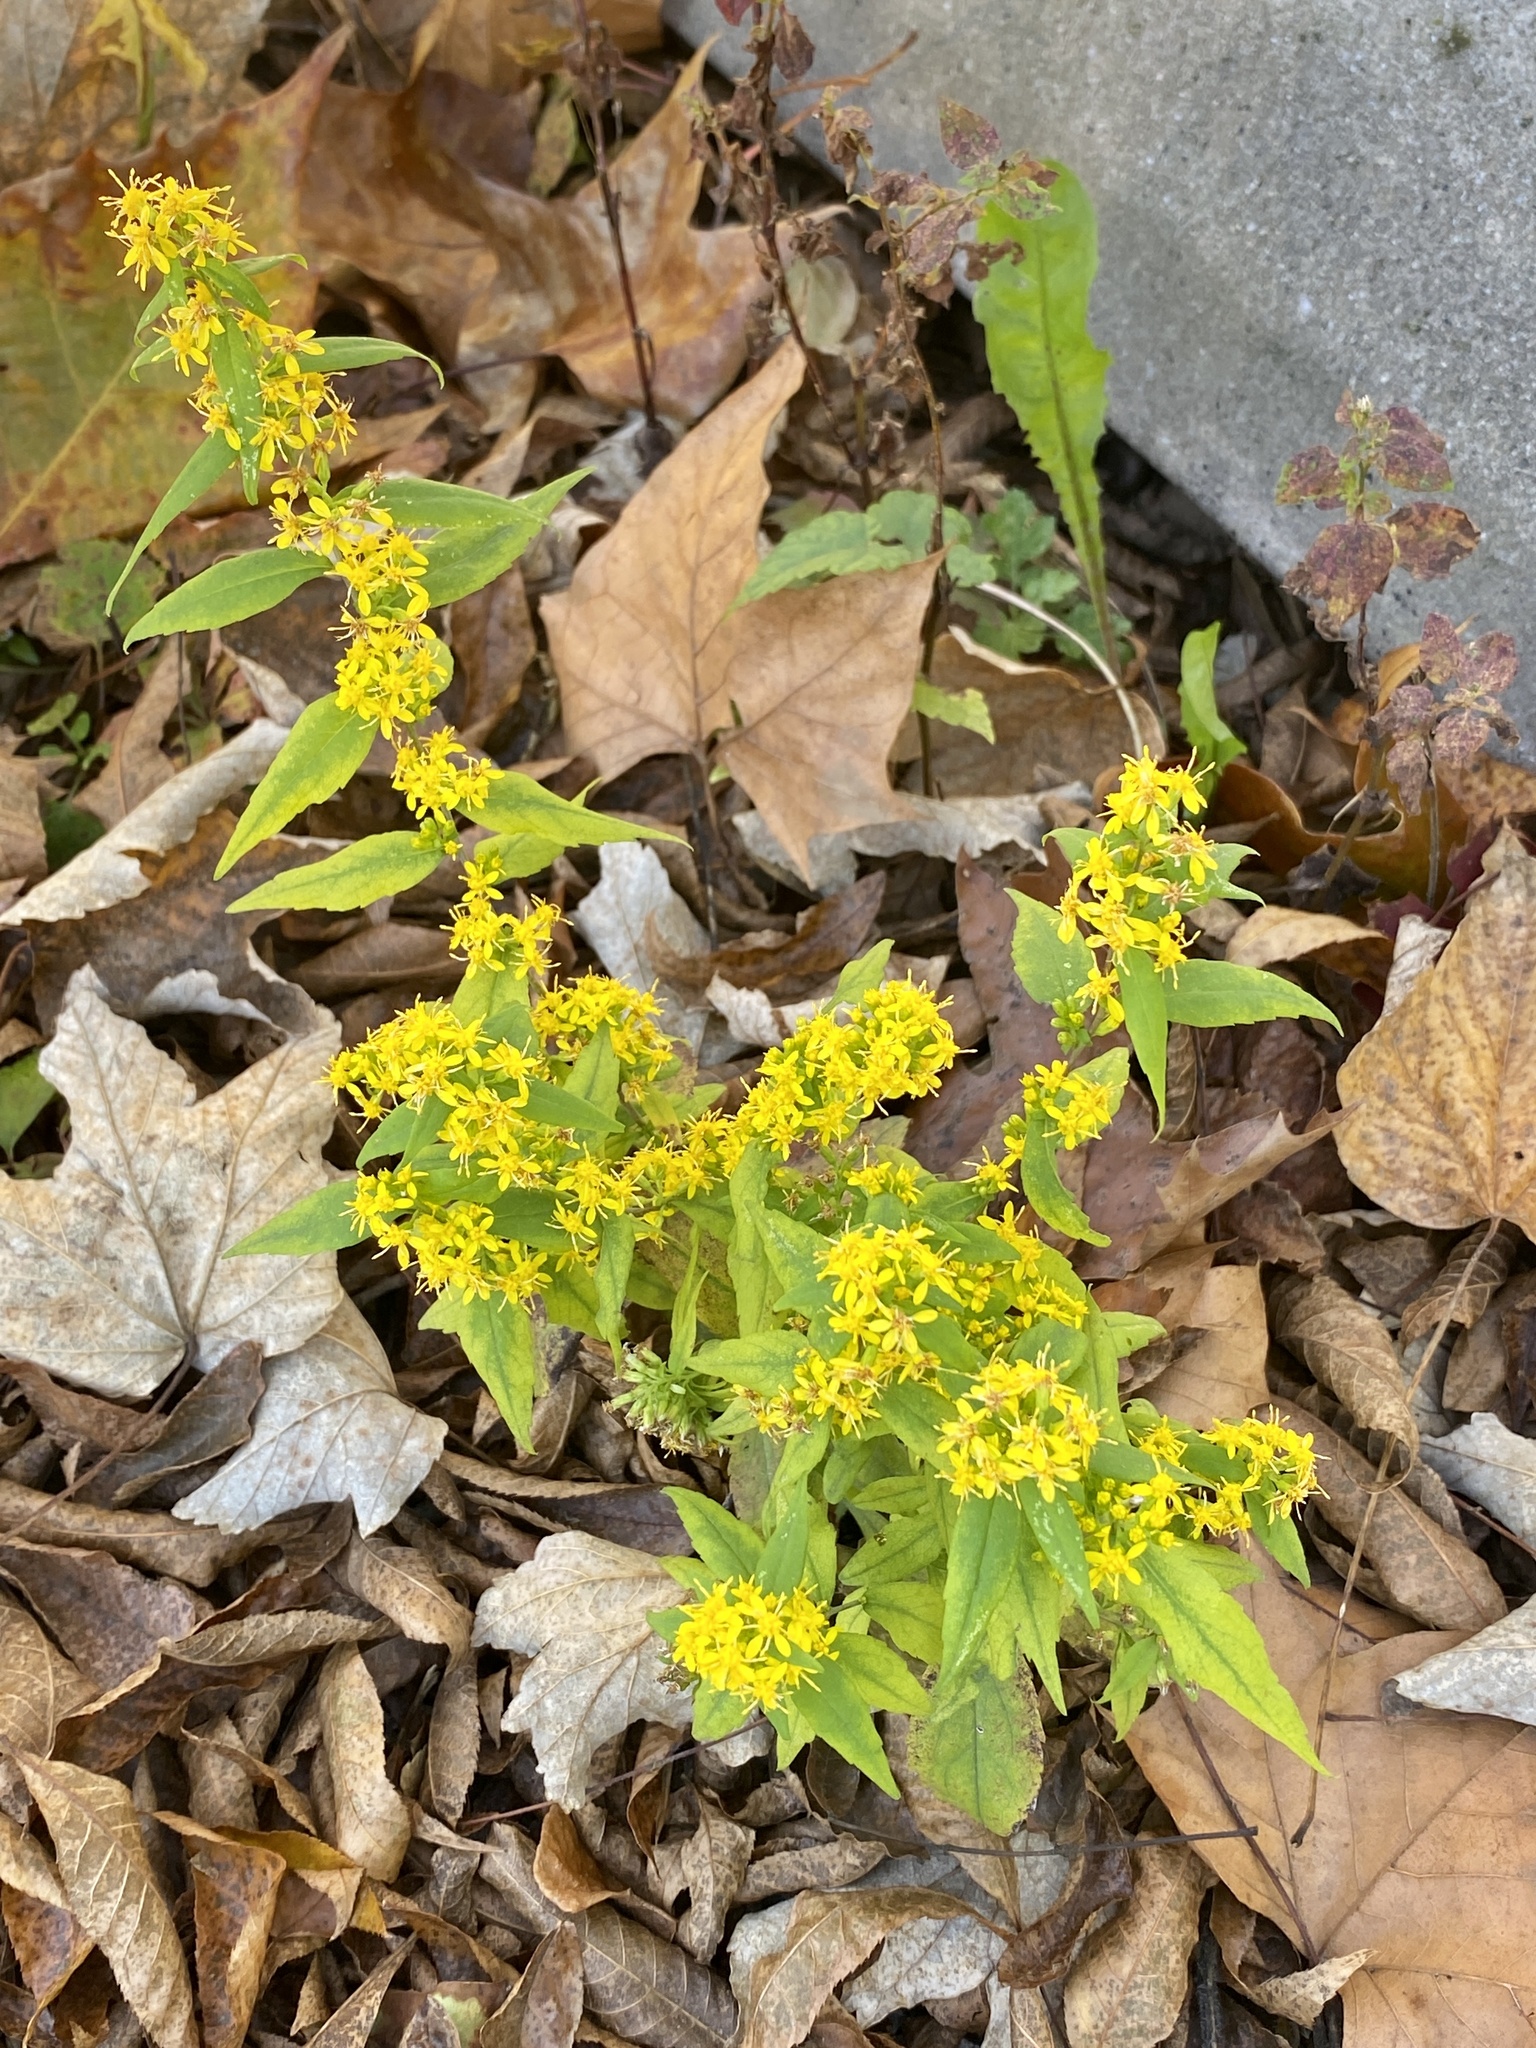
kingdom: Plantae
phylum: Tracheophyta
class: Magnoliopsida
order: Asterales
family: Asteraceae
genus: Solidago
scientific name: Solidago caesia
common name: Woodland goldenrod
